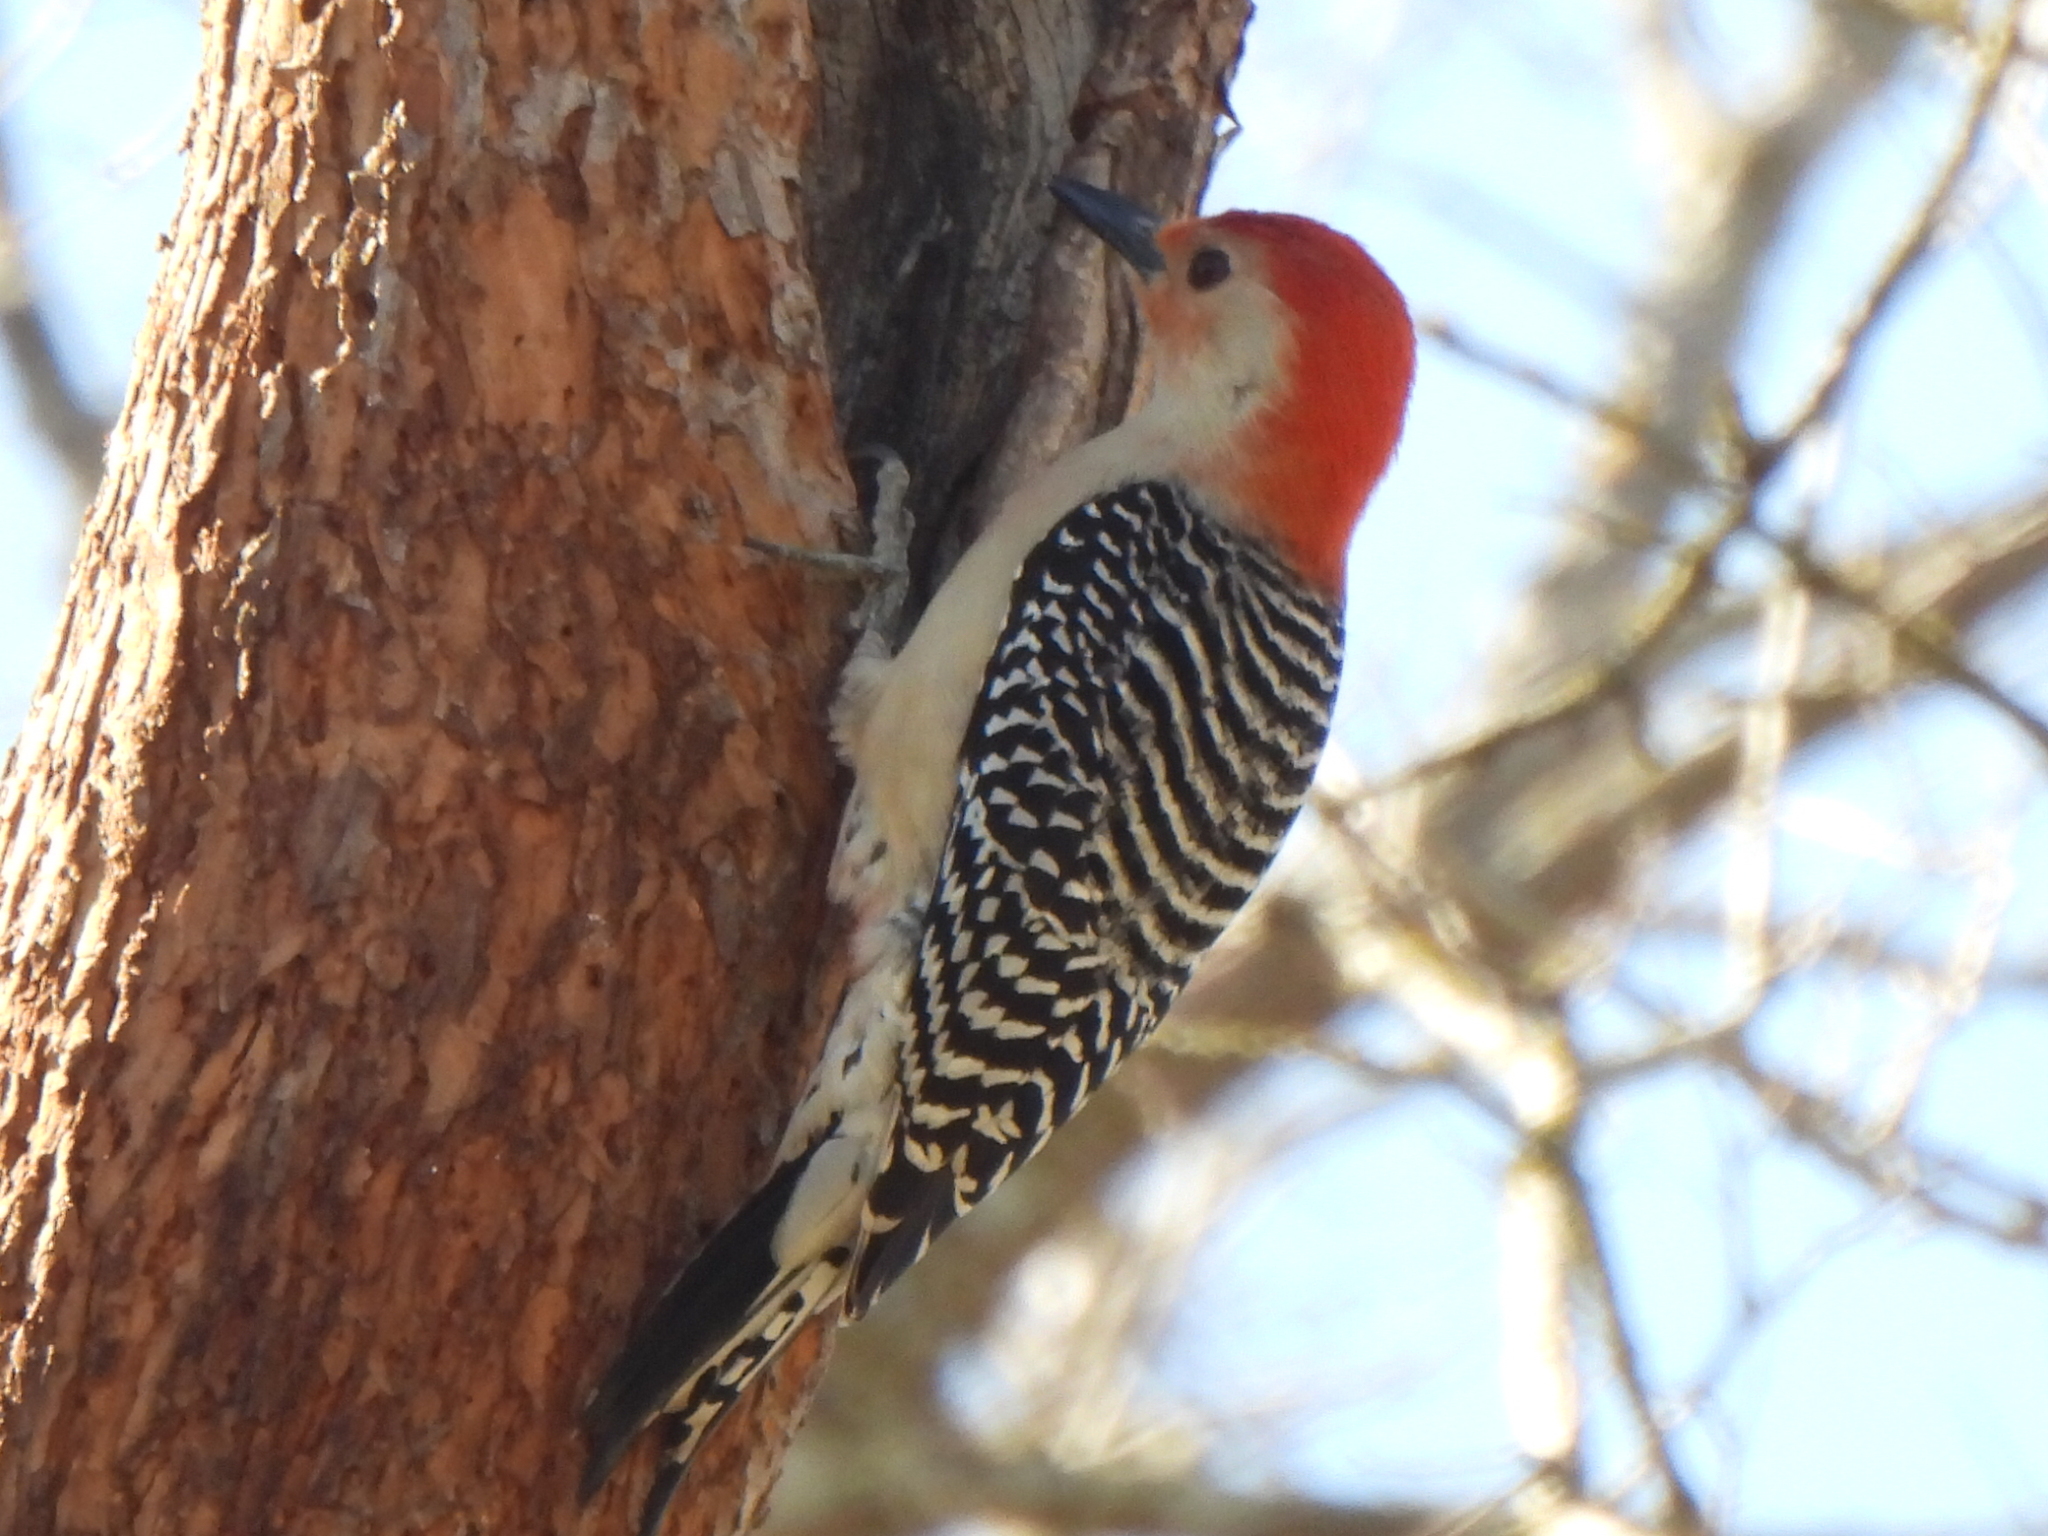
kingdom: Animalia
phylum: Chordata
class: Aves
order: Piciformes
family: Picidae
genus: Melanerpes
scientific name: Melanerpes carolinus
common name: Red-bellied woodpecker
